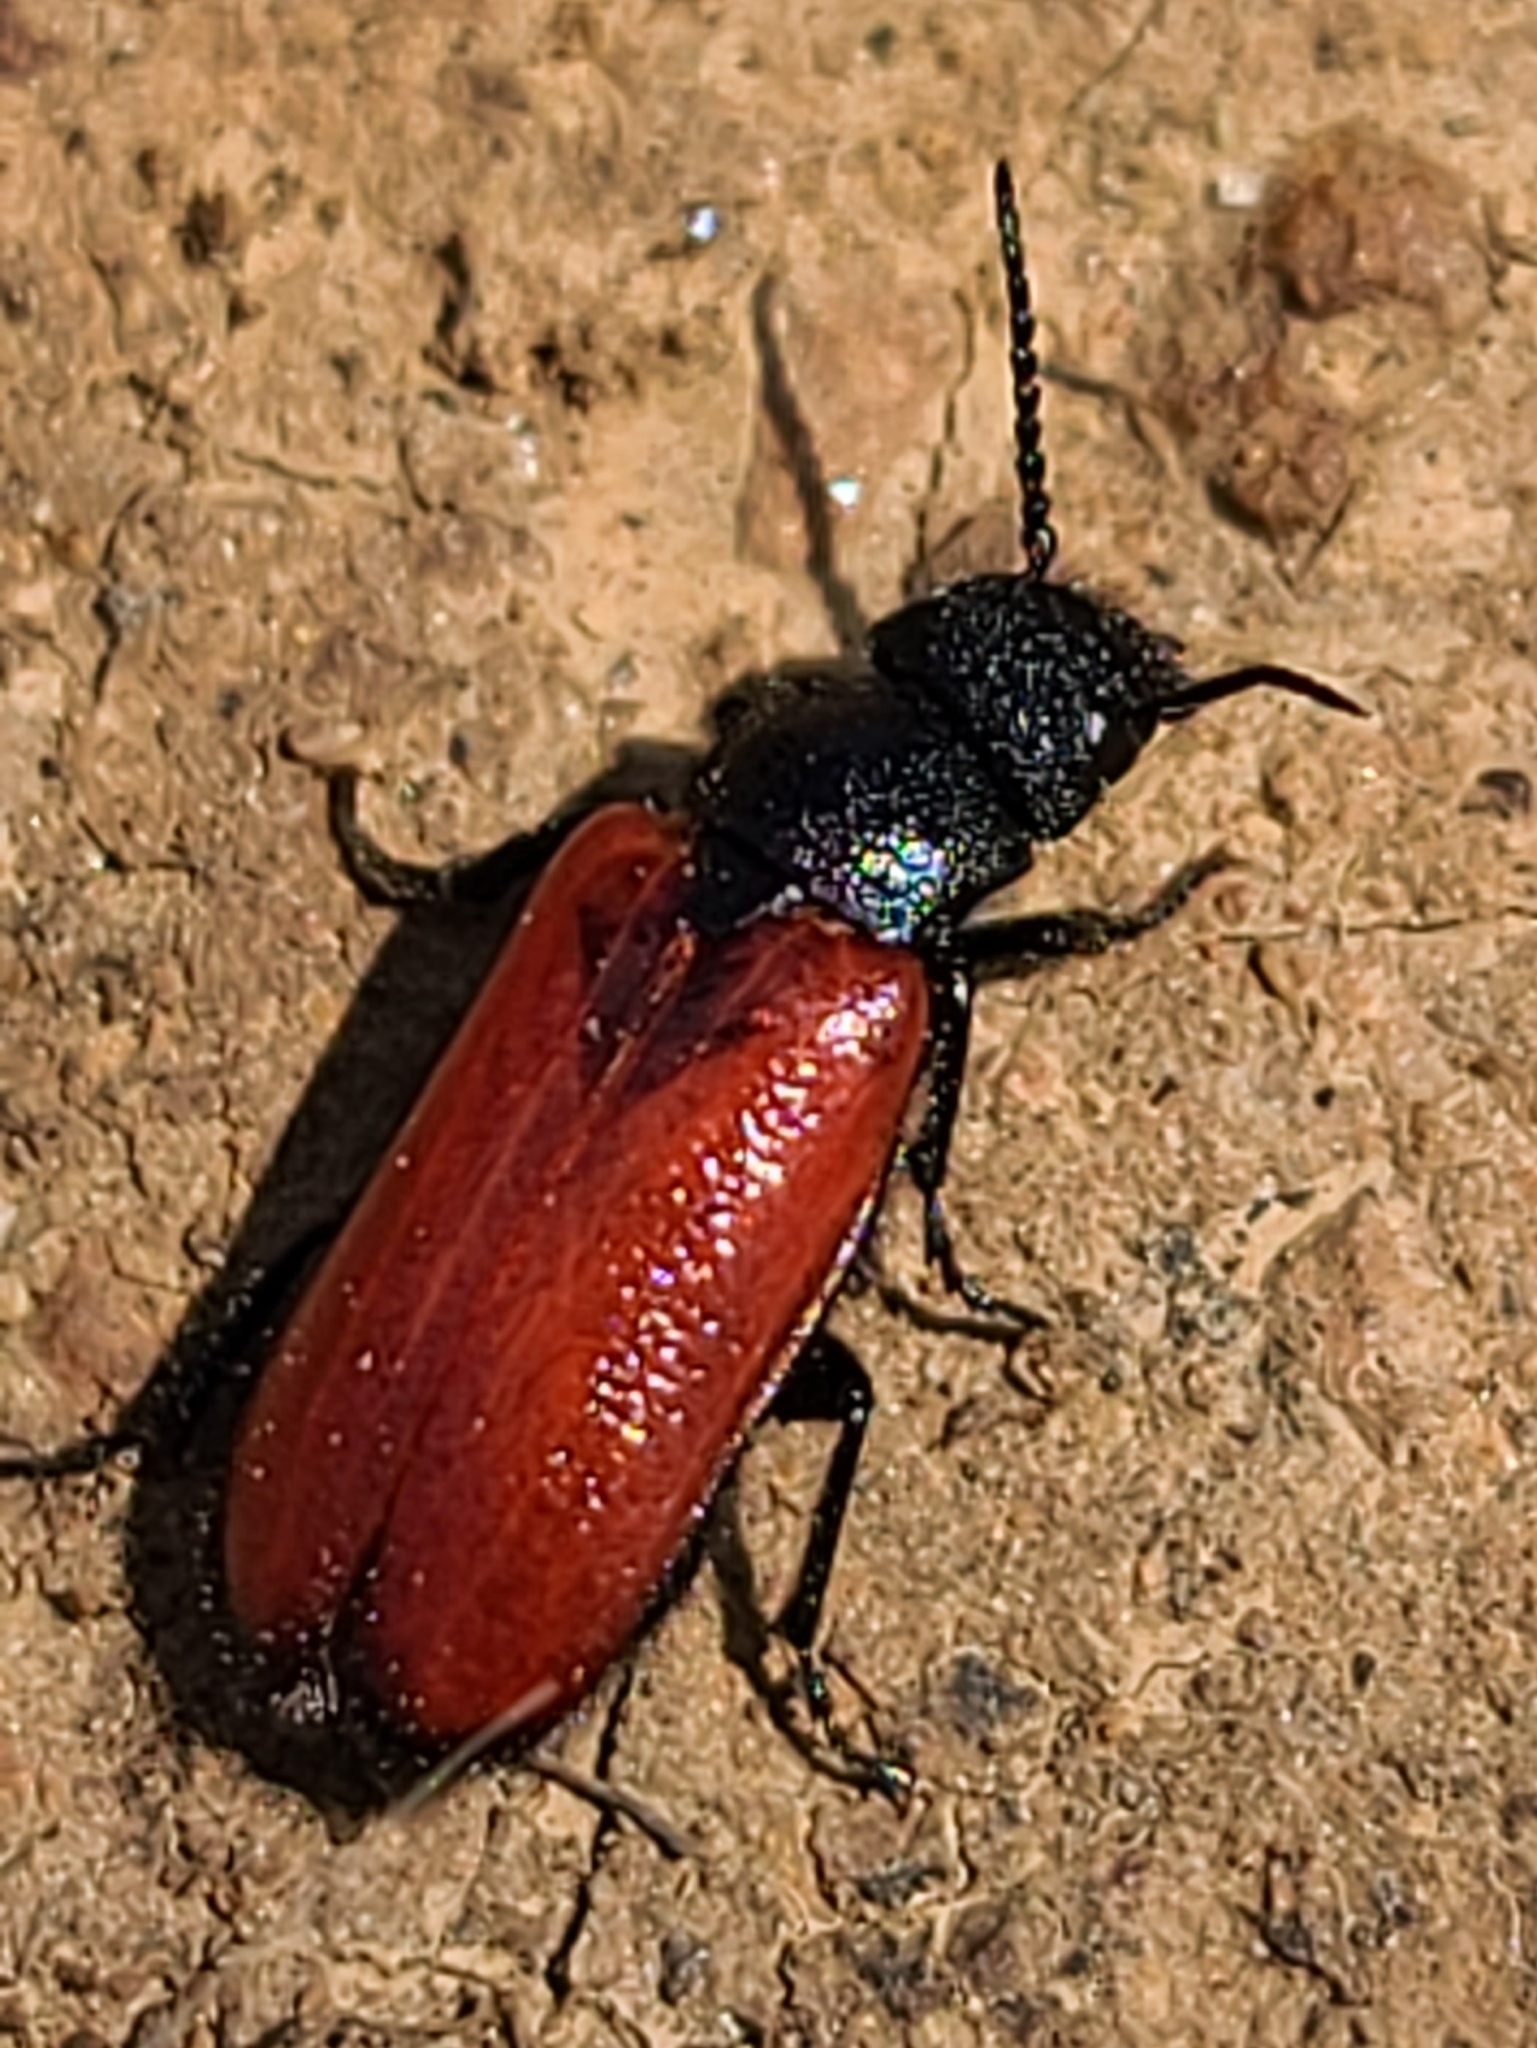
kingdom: Animalia
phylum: Arthropoda
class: Insecta
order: Coleoptera
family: Meloidae
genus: Tricrania
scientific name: Tricrania stansburii
